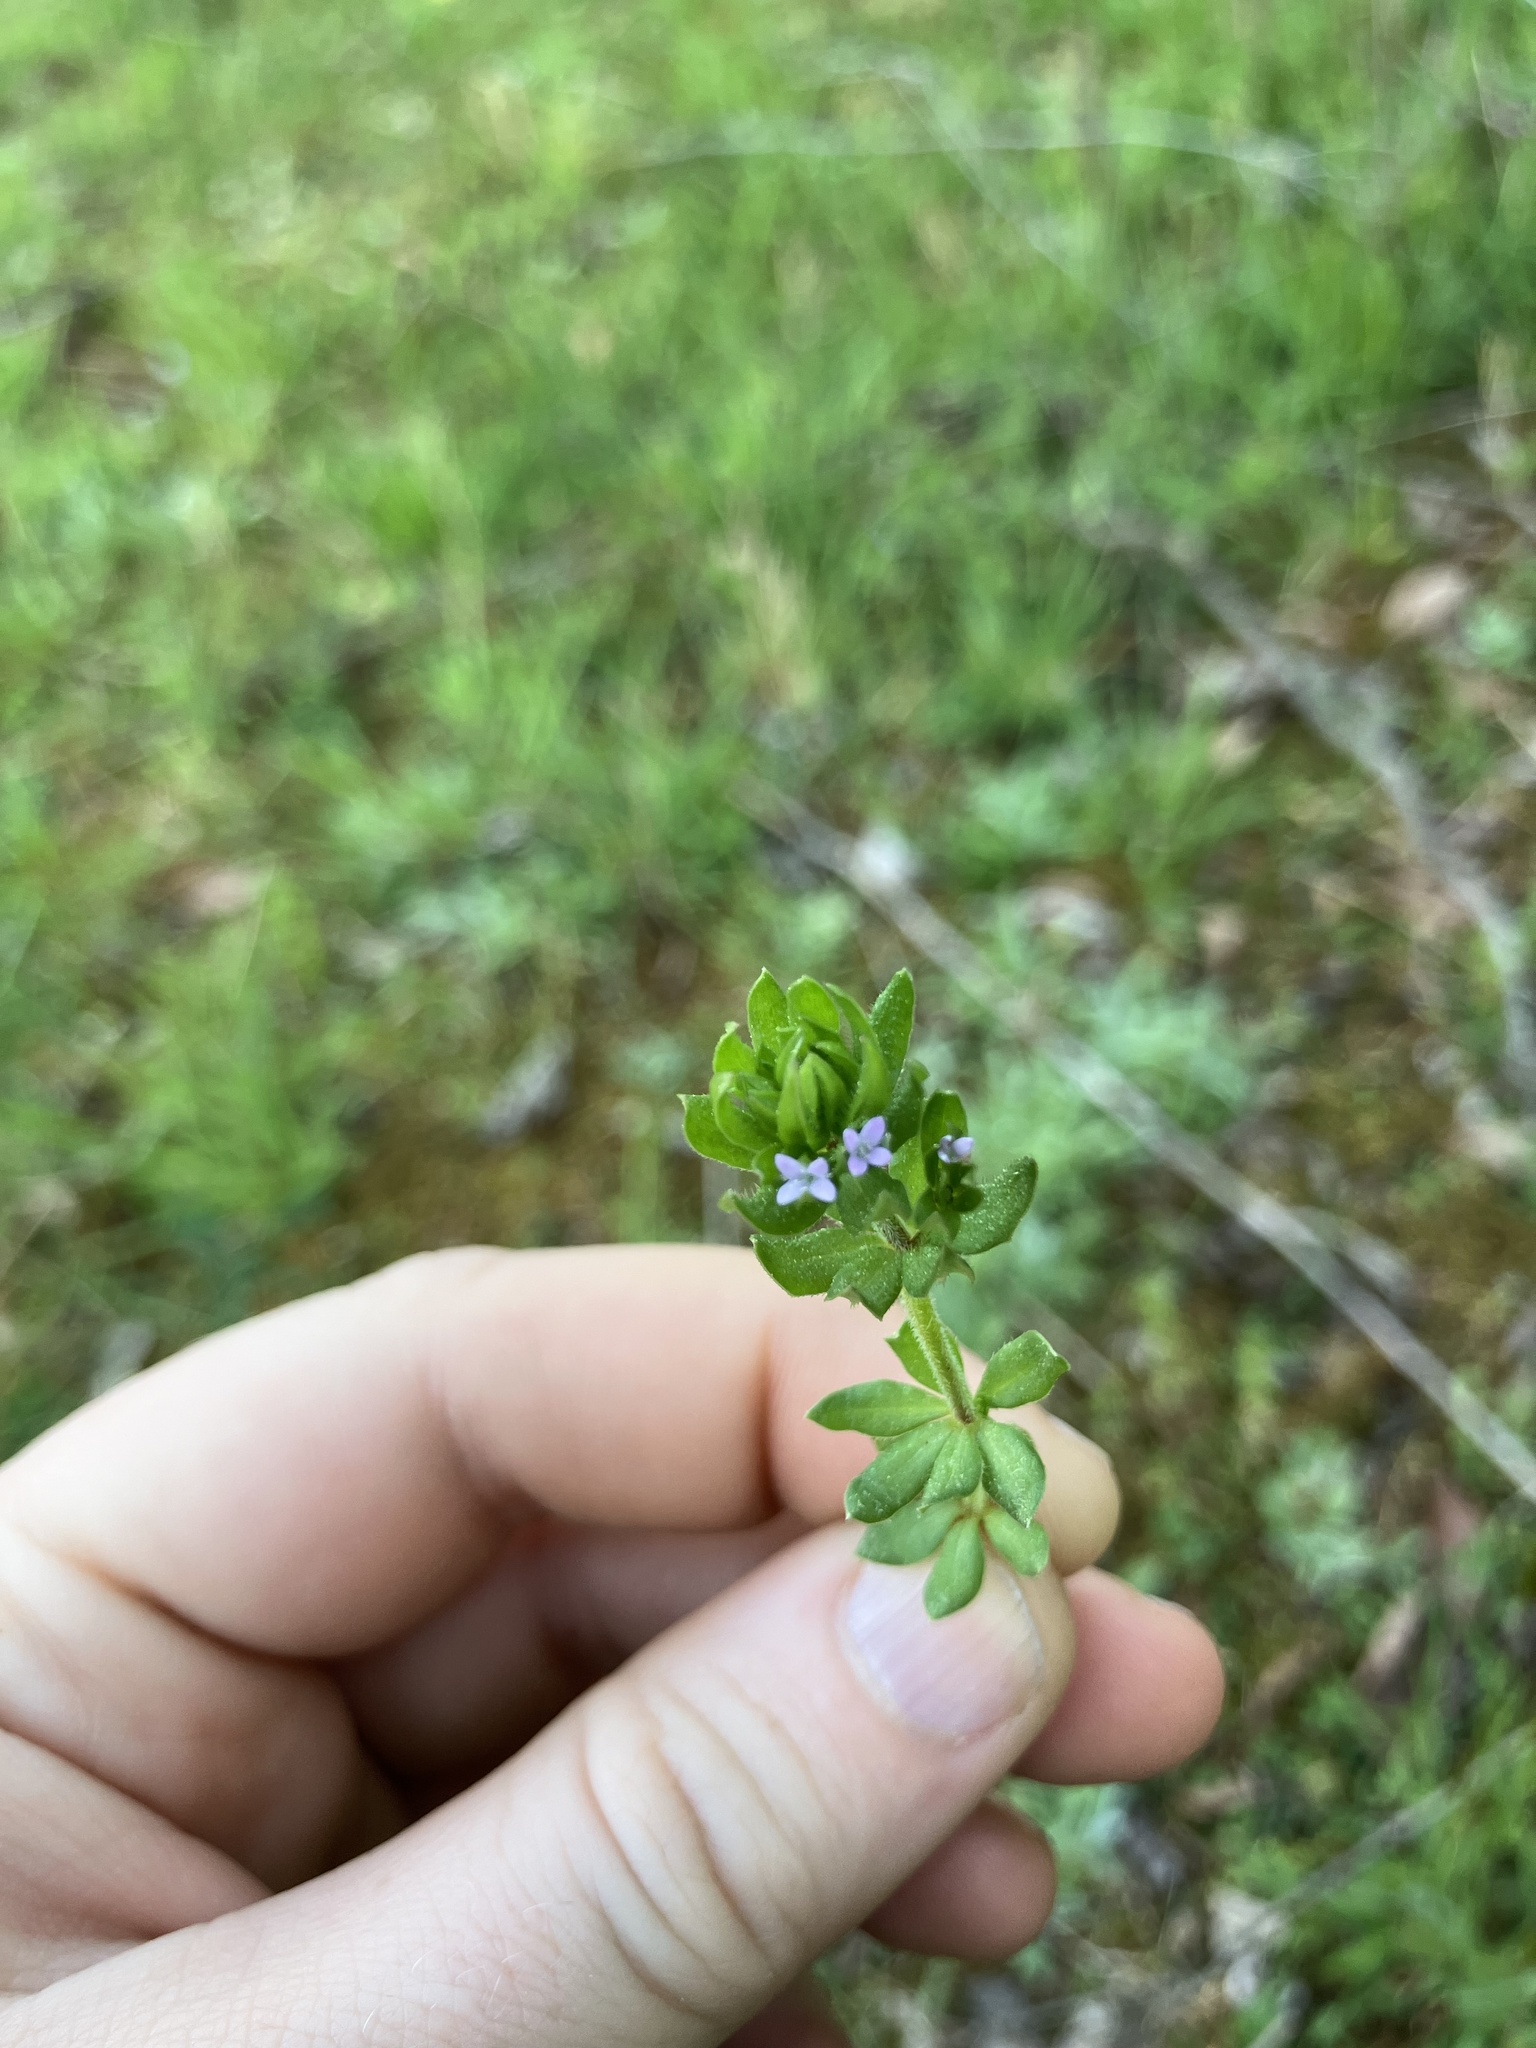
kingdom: Plantae
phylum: Tracheophyta
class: Magnoliopsida
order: Gentianales
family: Rubiaceae
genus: Sherardia
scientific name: Sherardia arvensis
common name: Field madder
